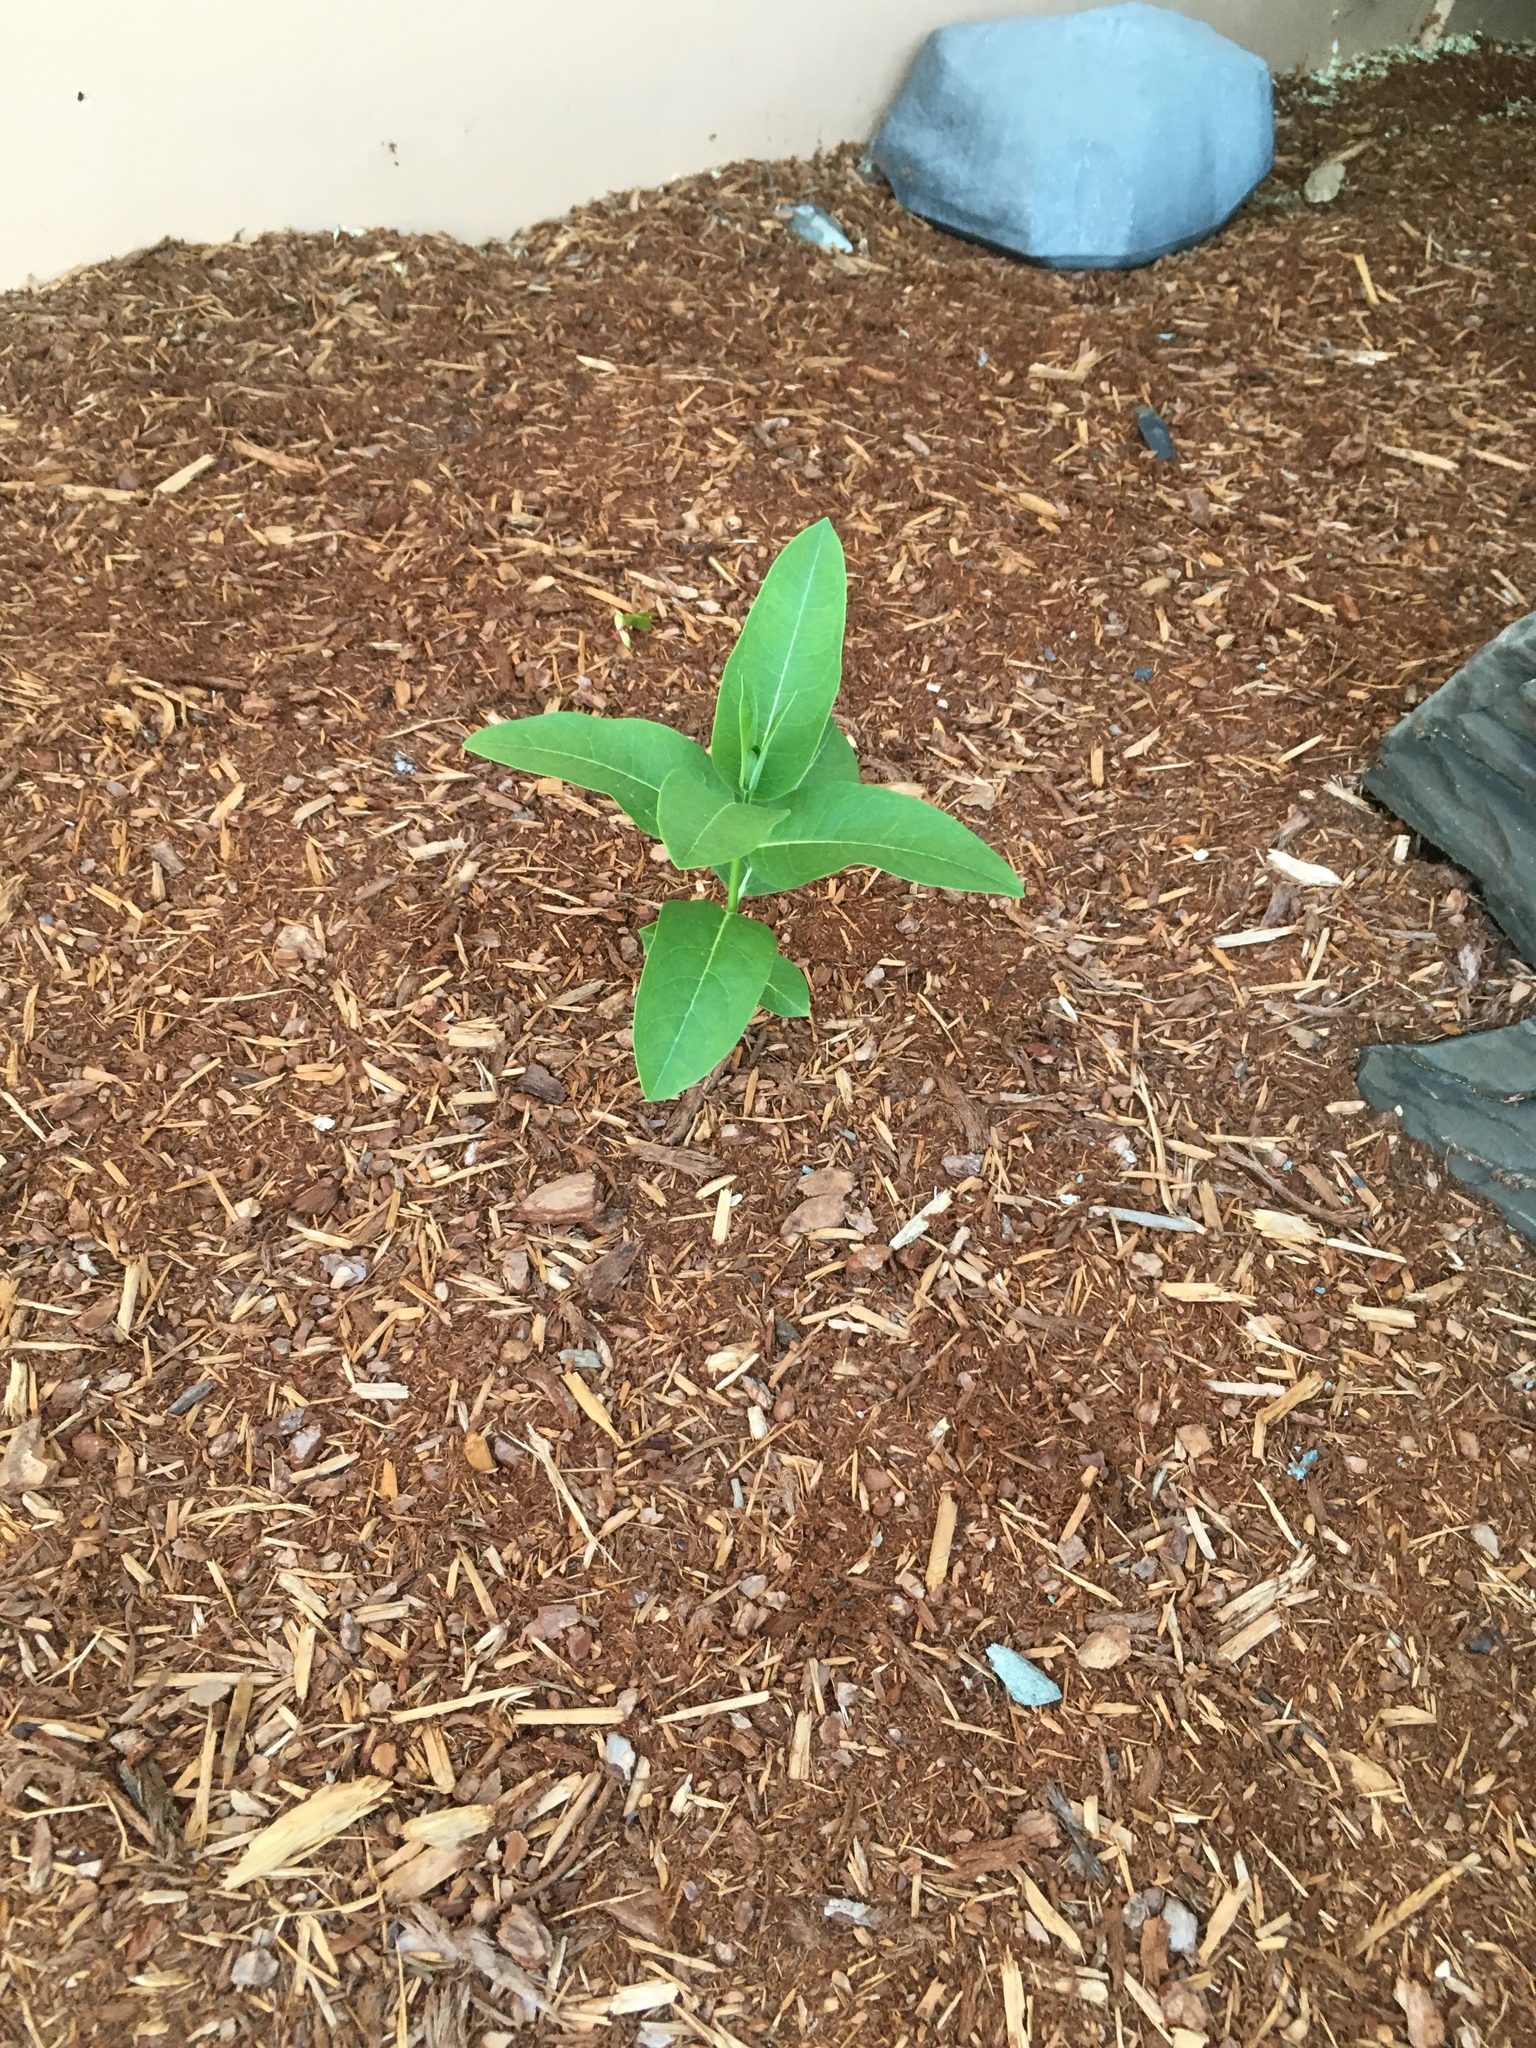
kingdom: Plantae
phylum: Tracheophyta
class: Magnoliopsida
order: Gentianales
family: Apocynaceae
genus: Asclepias
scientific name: Asclepias syriaca
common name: Common milkweed
